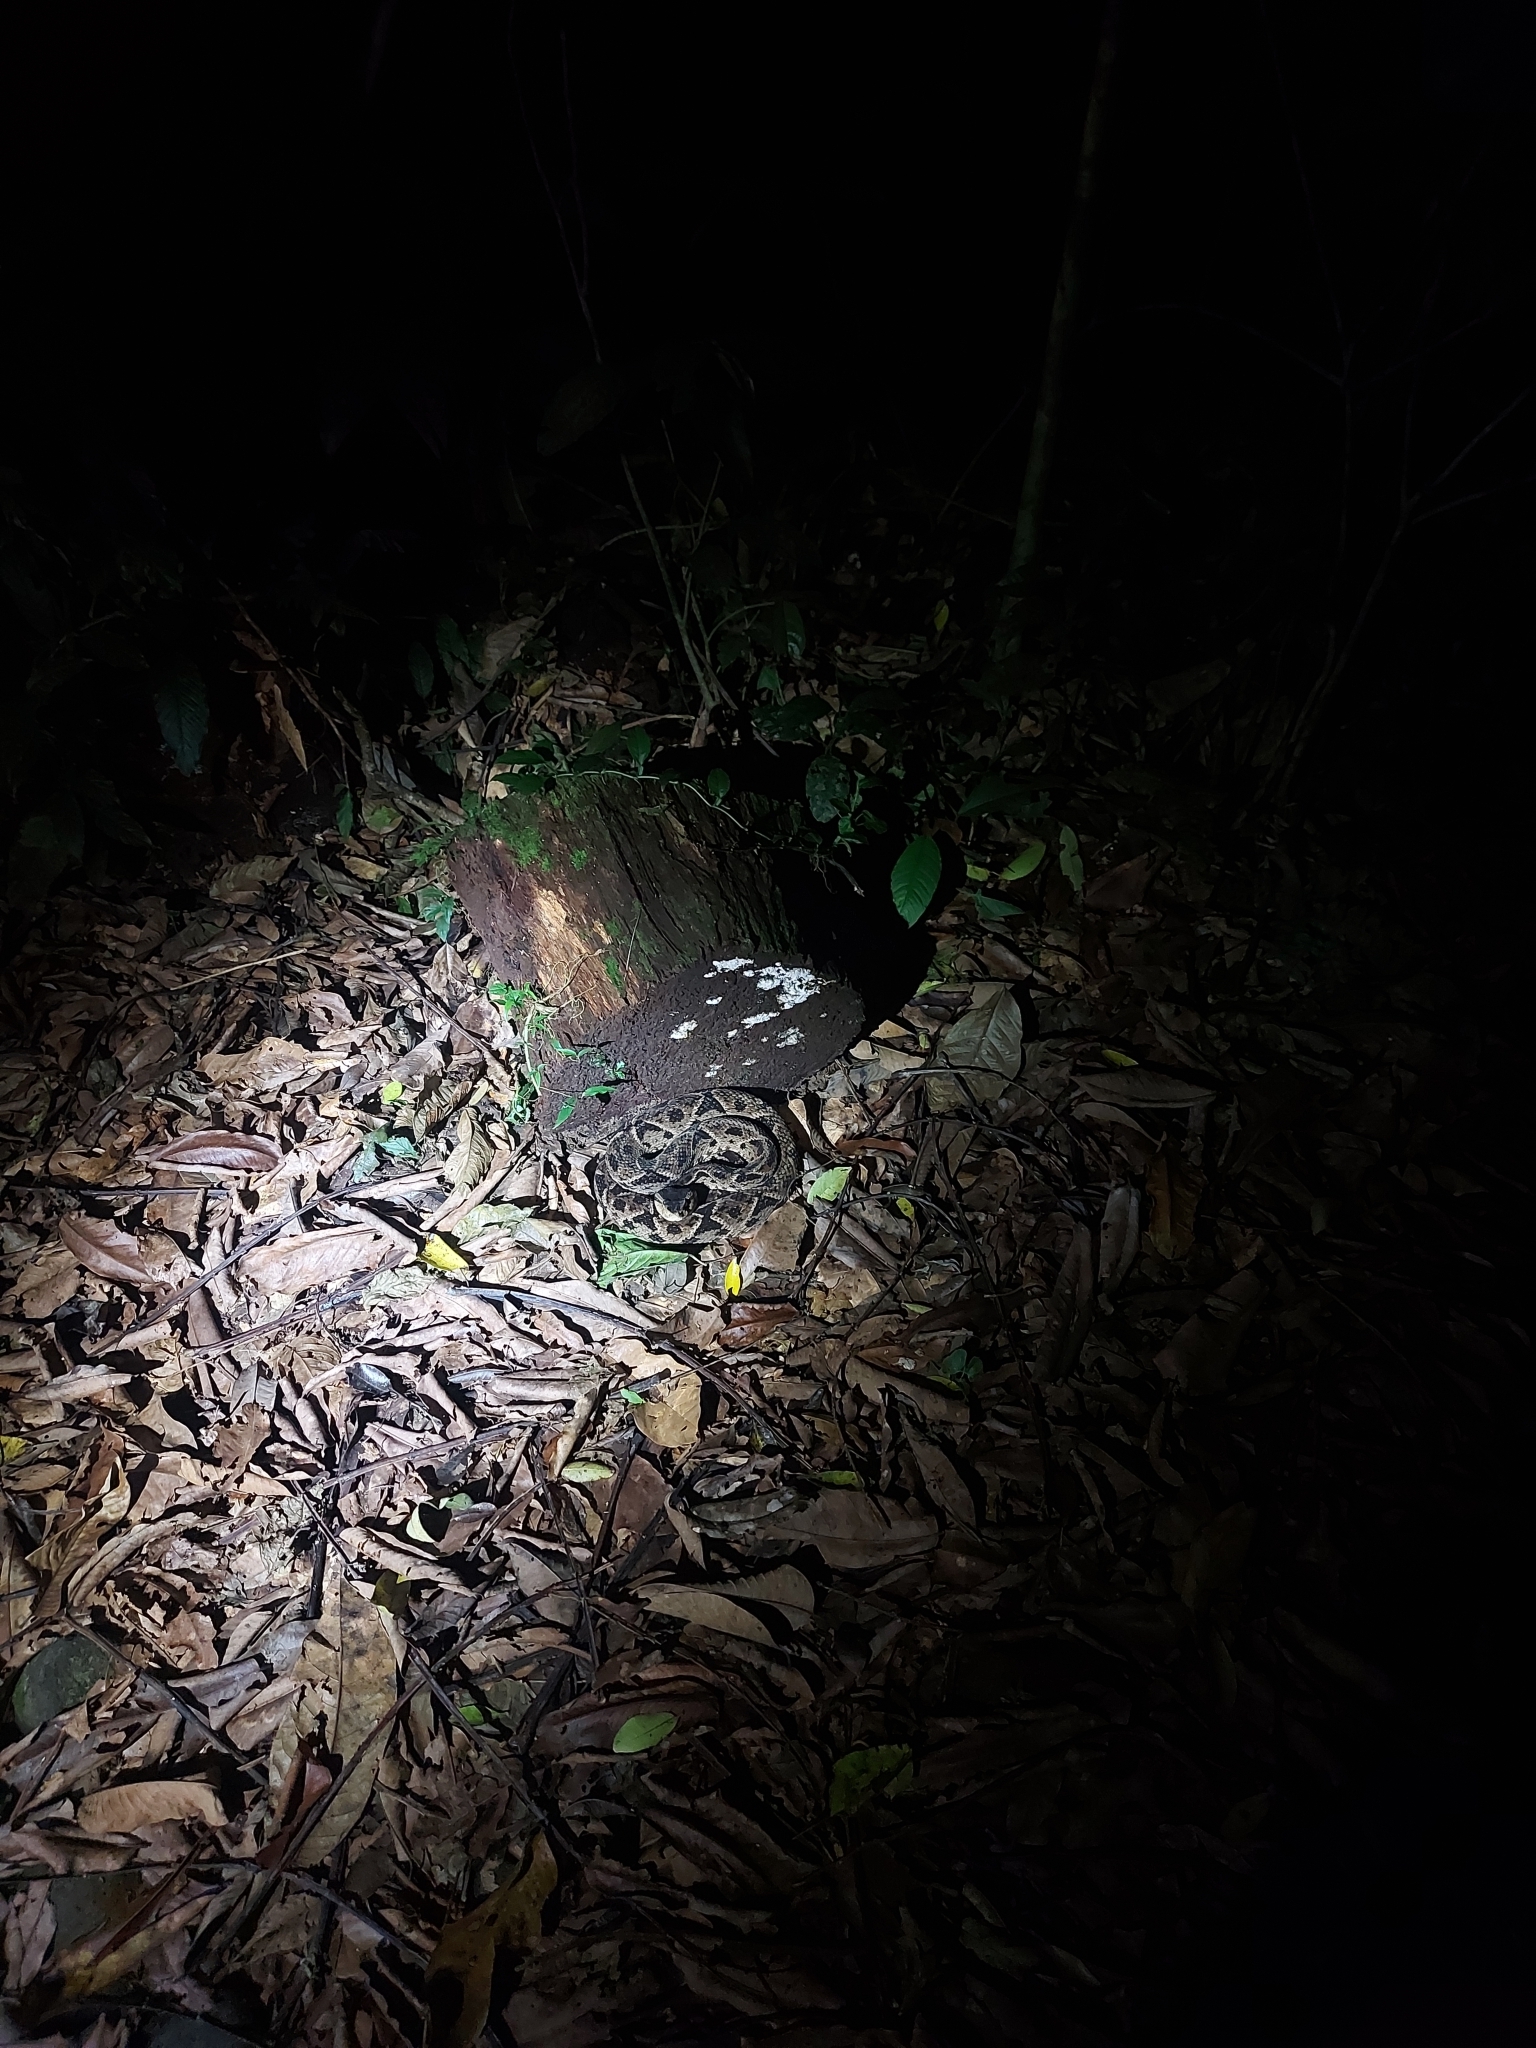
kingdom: Animalia
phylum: Chordata
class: Squamata
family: Viperidae
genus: Bothrops
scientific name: Bothrops asper
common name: Terciopelo
